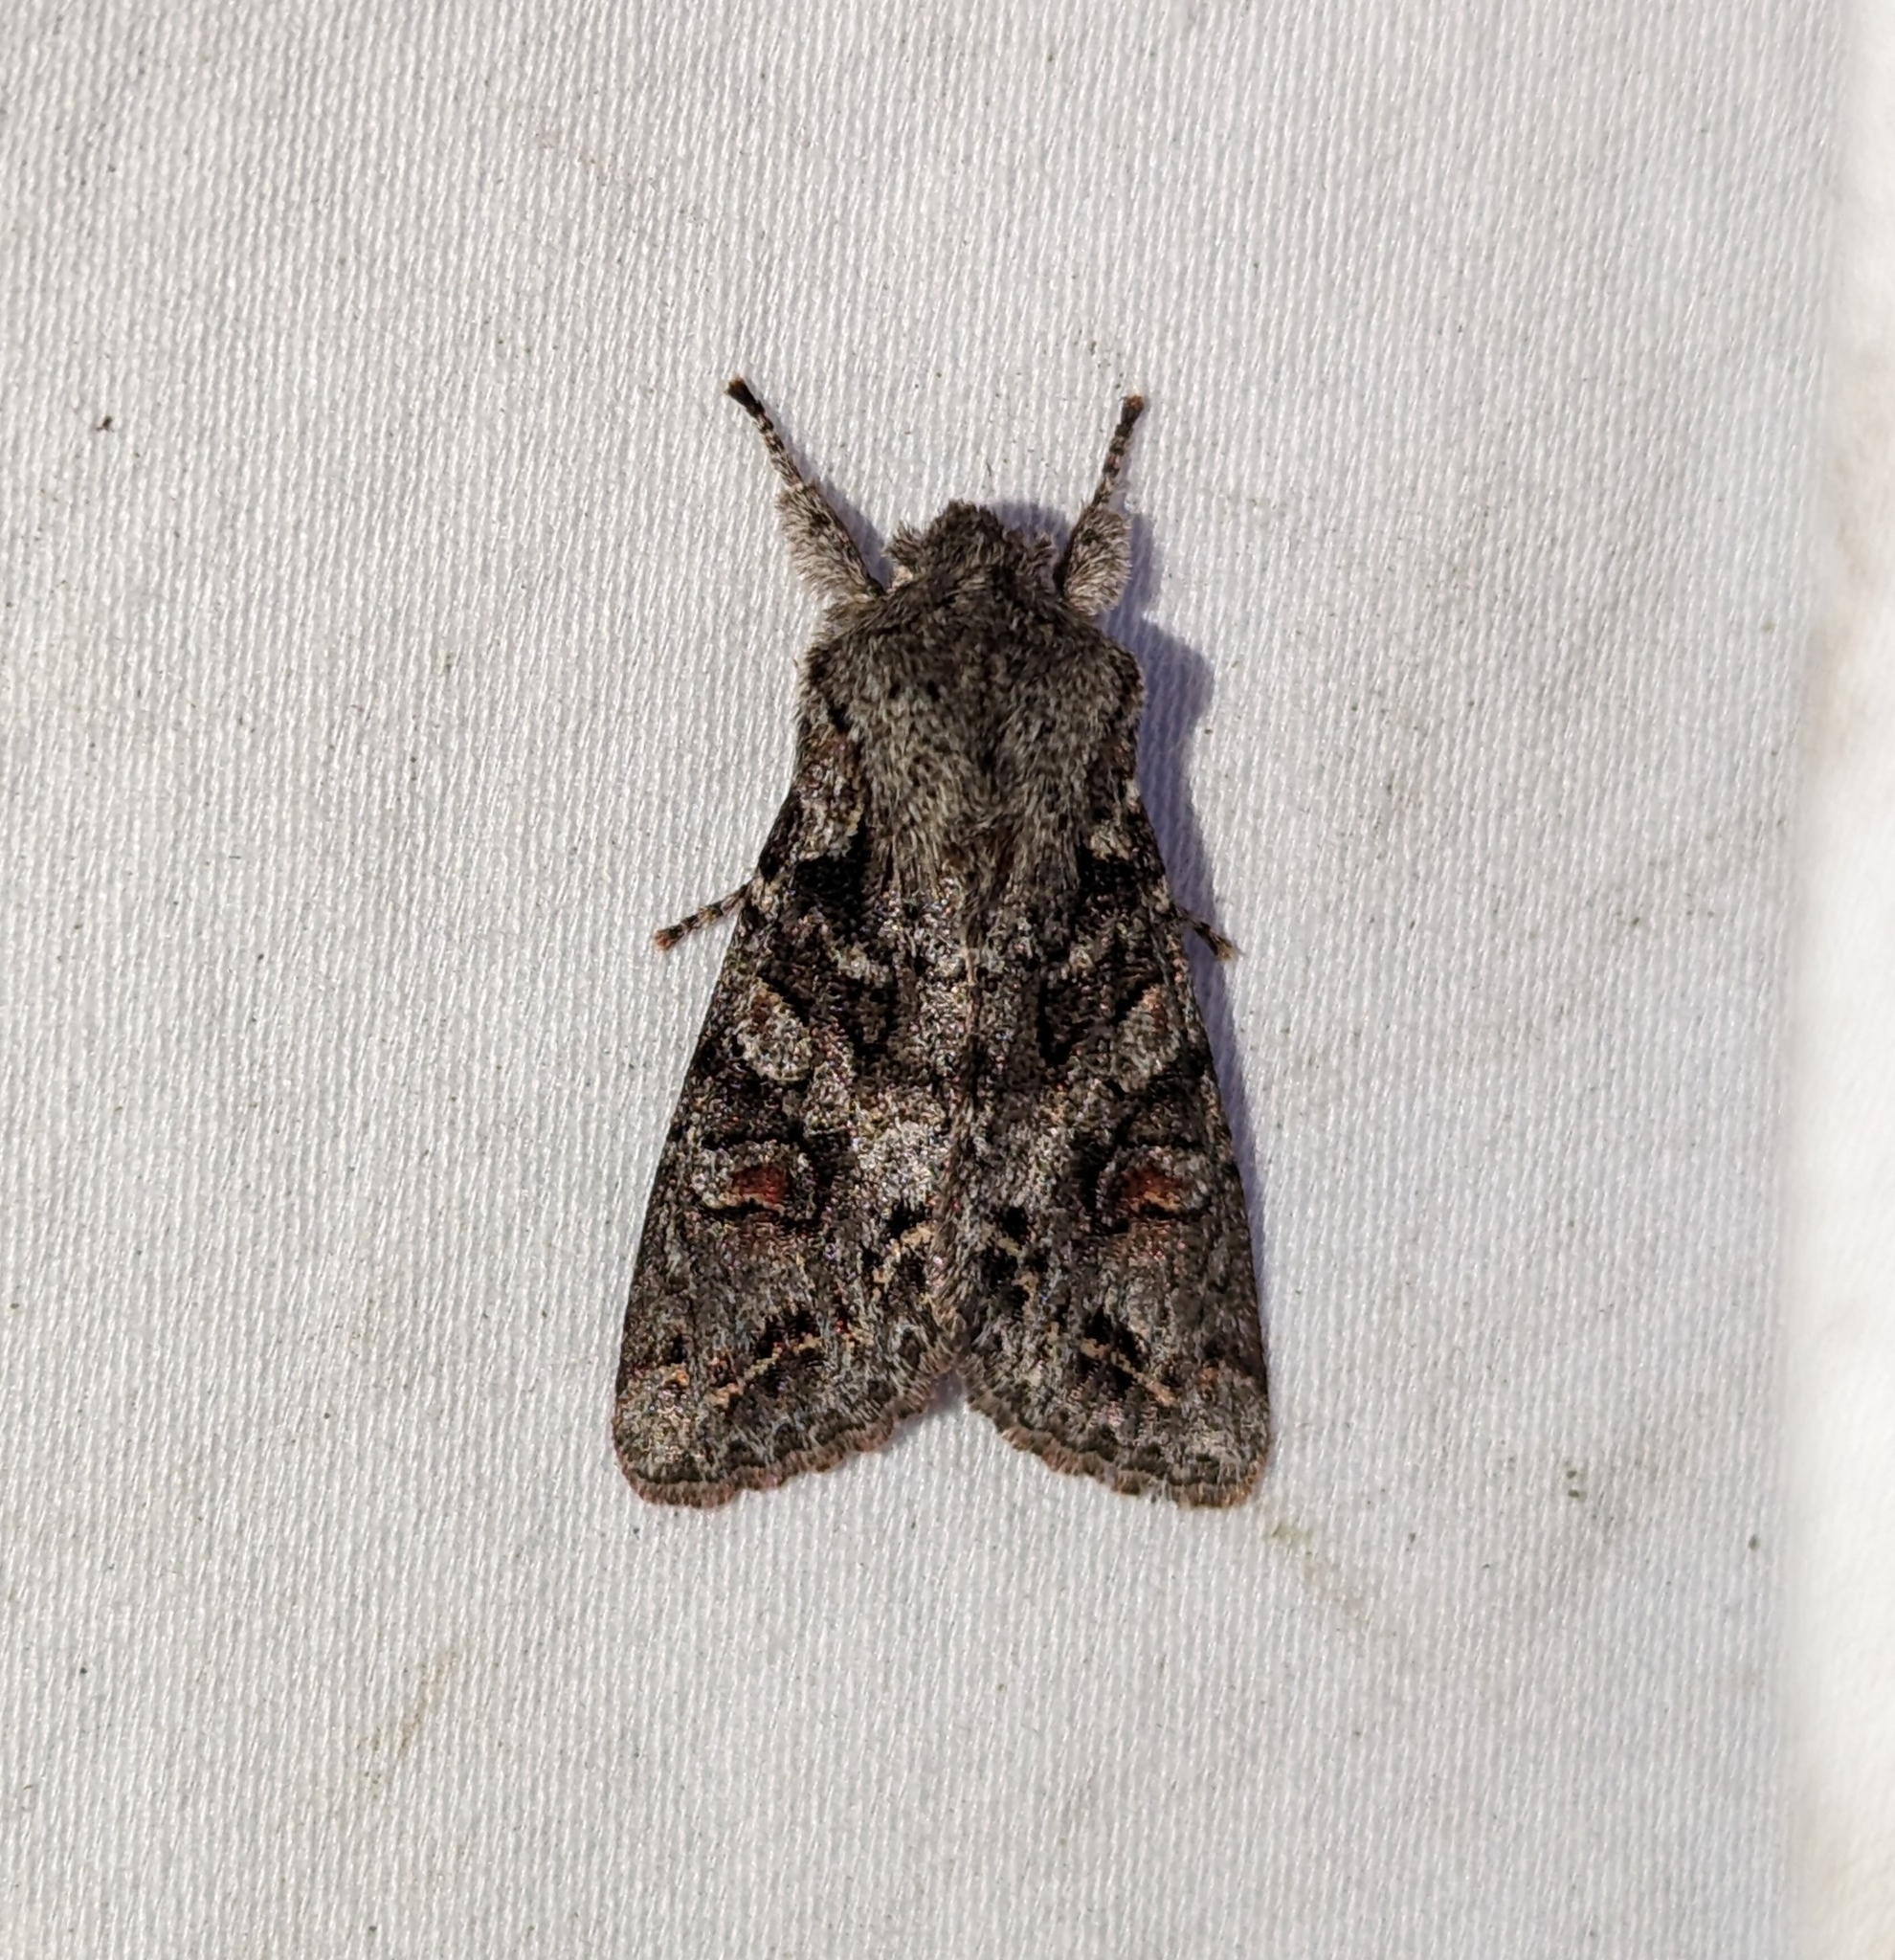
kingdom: Animalia
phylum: Arthropoda
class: Insecta
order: Lepidoptera
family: Noctuidae
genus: Egira
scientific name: Egira hiemalis
